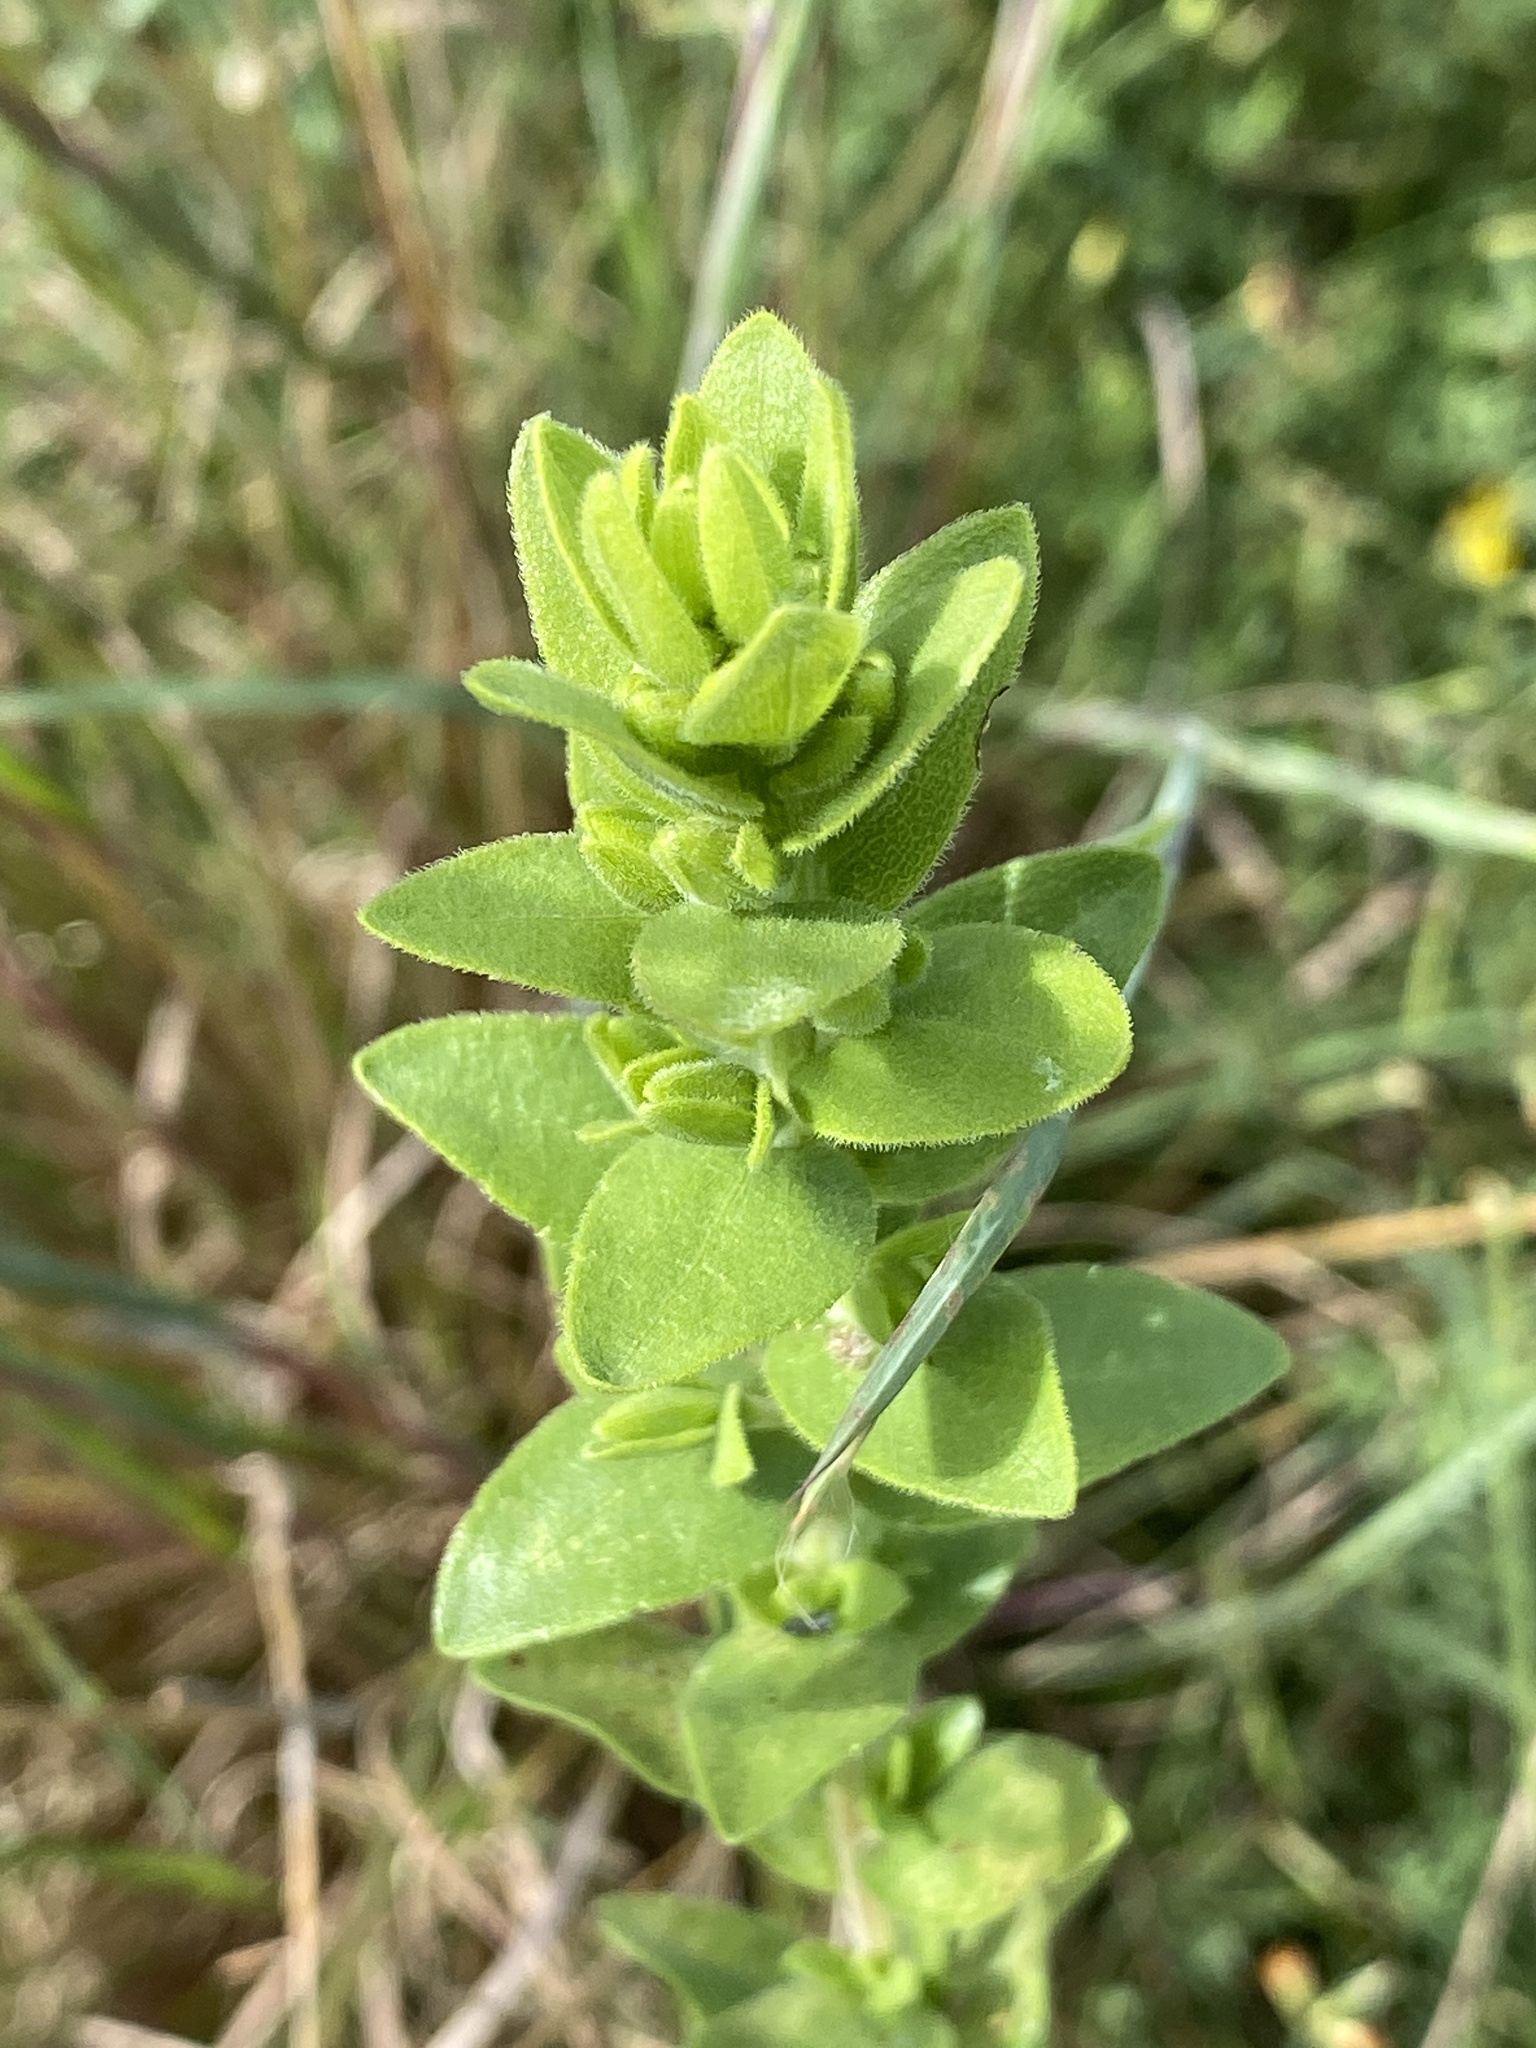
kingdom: Plantae
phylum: Tracheophyta
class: Magnoliopsida
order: Asterales
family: Asteraceae
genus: Solidago
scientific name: Solidago rigida
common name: Rigid goldenrod
